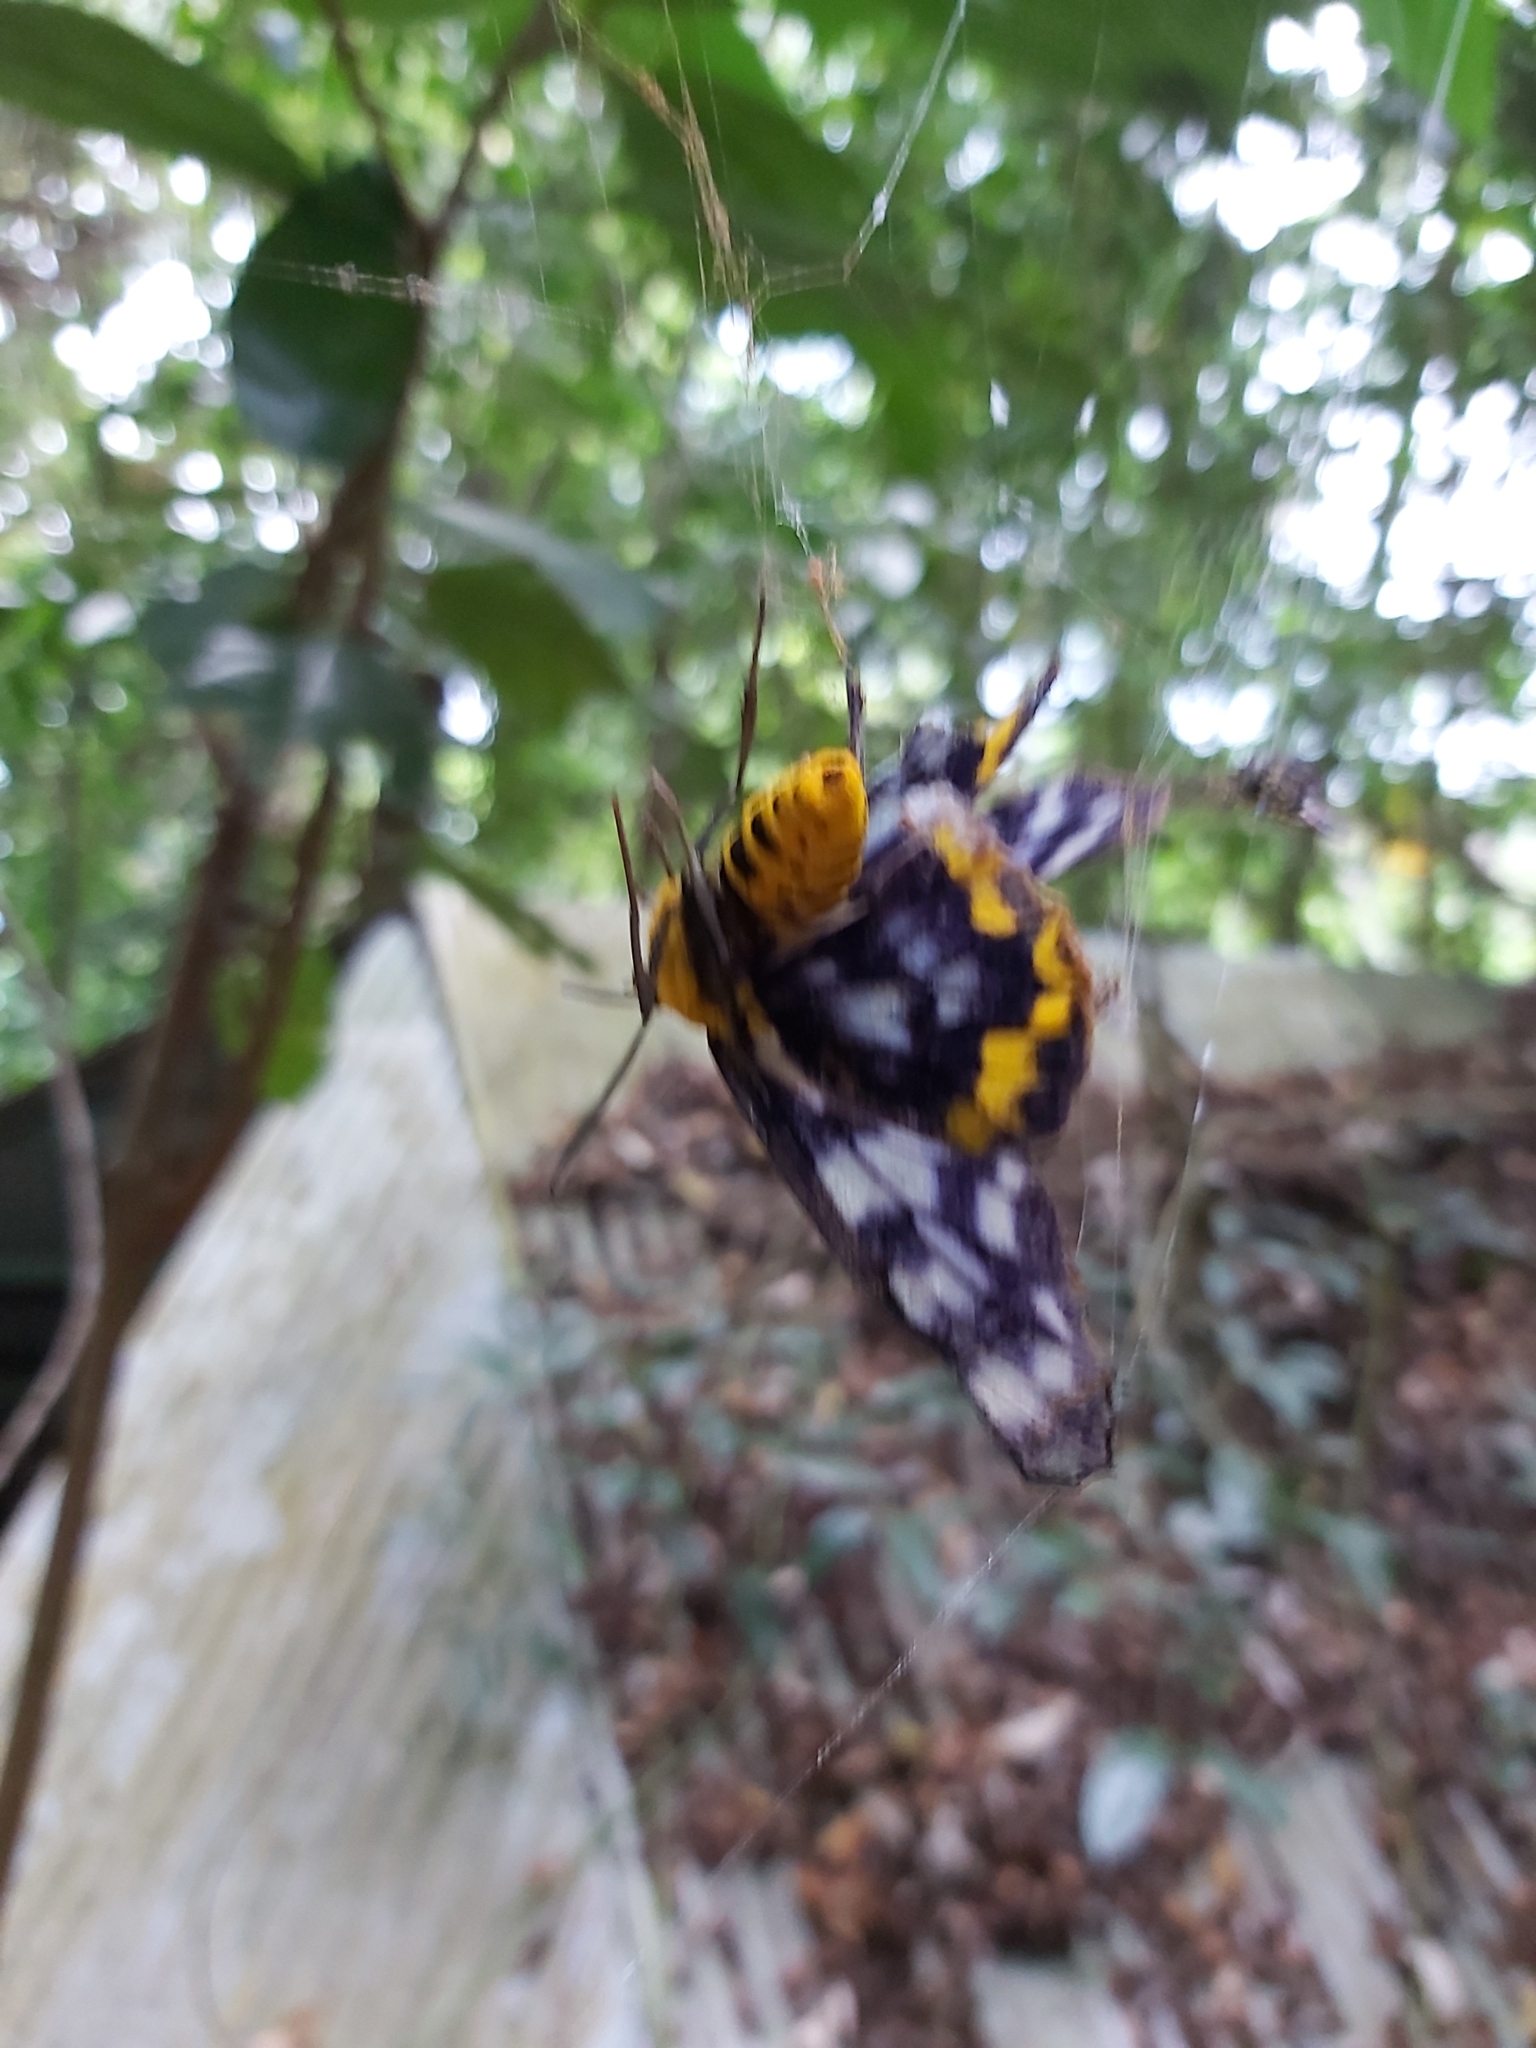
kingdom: Animalia
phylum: Arthropoda
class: Insecta
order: Lepidoptera
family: Geometridae
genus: Dysphania
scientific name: Dysphania numana
